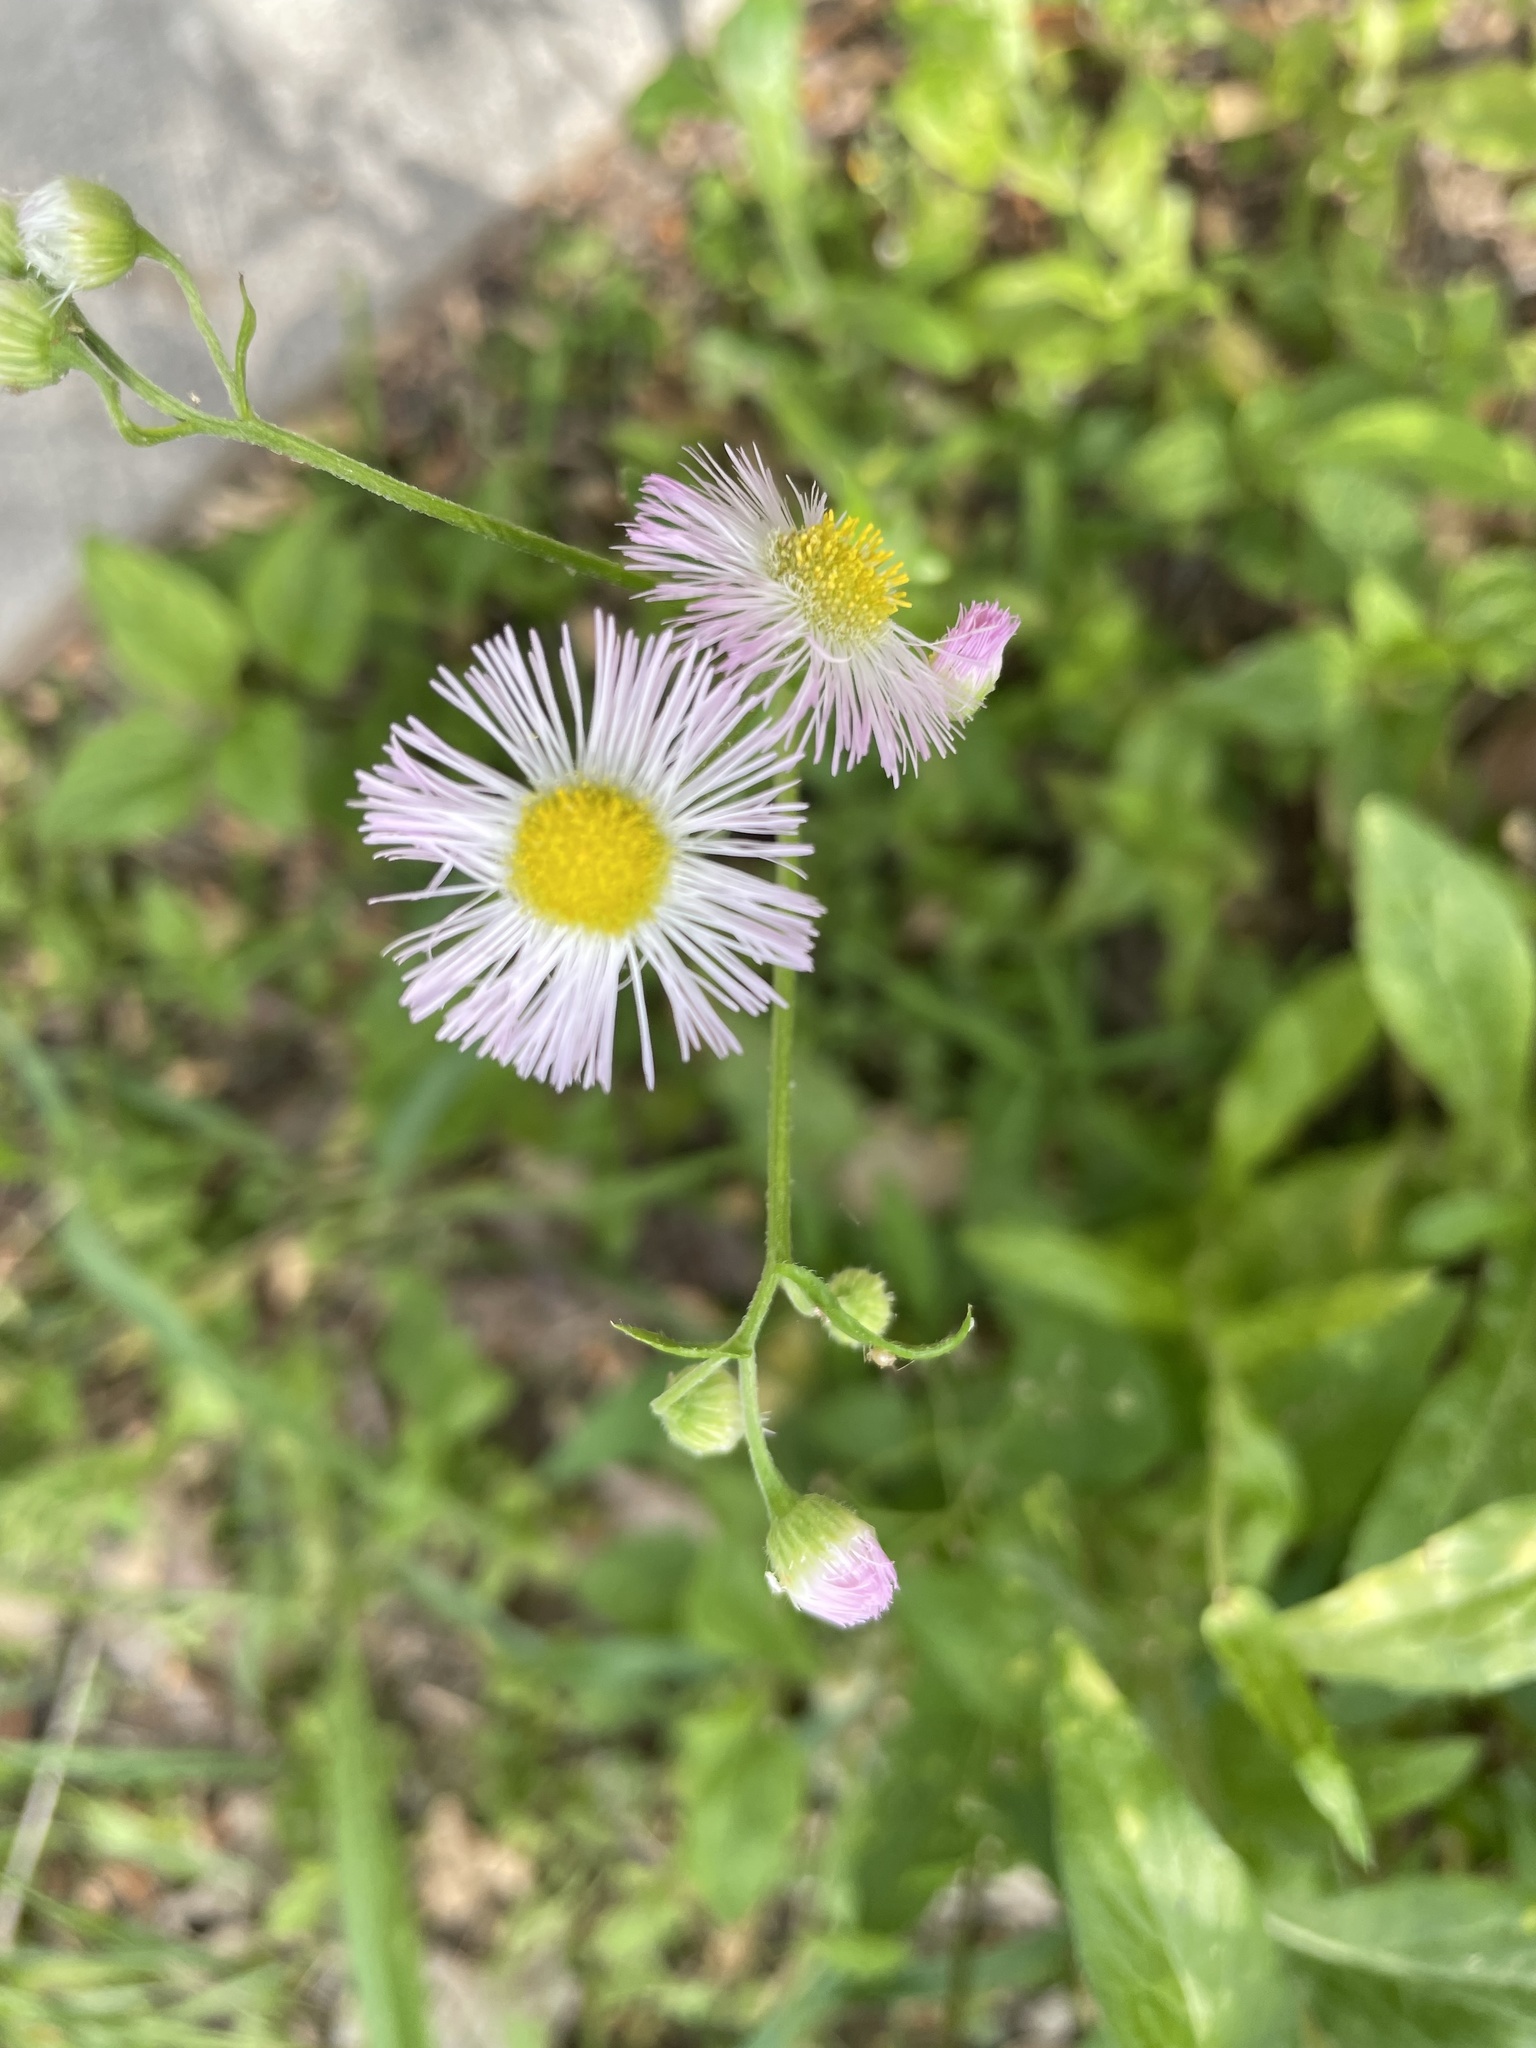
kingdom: Plantae
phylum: Tracheophyta
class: Magnoliopsida
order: Asterales
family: Asteraceae
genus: Erigeron
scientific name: Erigeron philadelphicus
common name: Robin's-plantain
